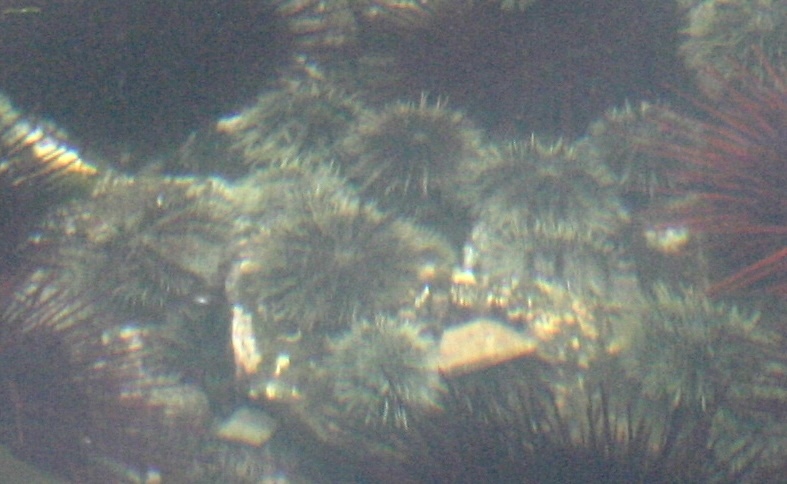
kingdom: Animalia
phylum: Echinodermata
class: Echinoidea
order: Camarodonta
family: Strongylocentrotidae
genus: Strongylocentrotus
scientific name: Strongylocentrotus droebachiensis
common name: Northern sea urchin
